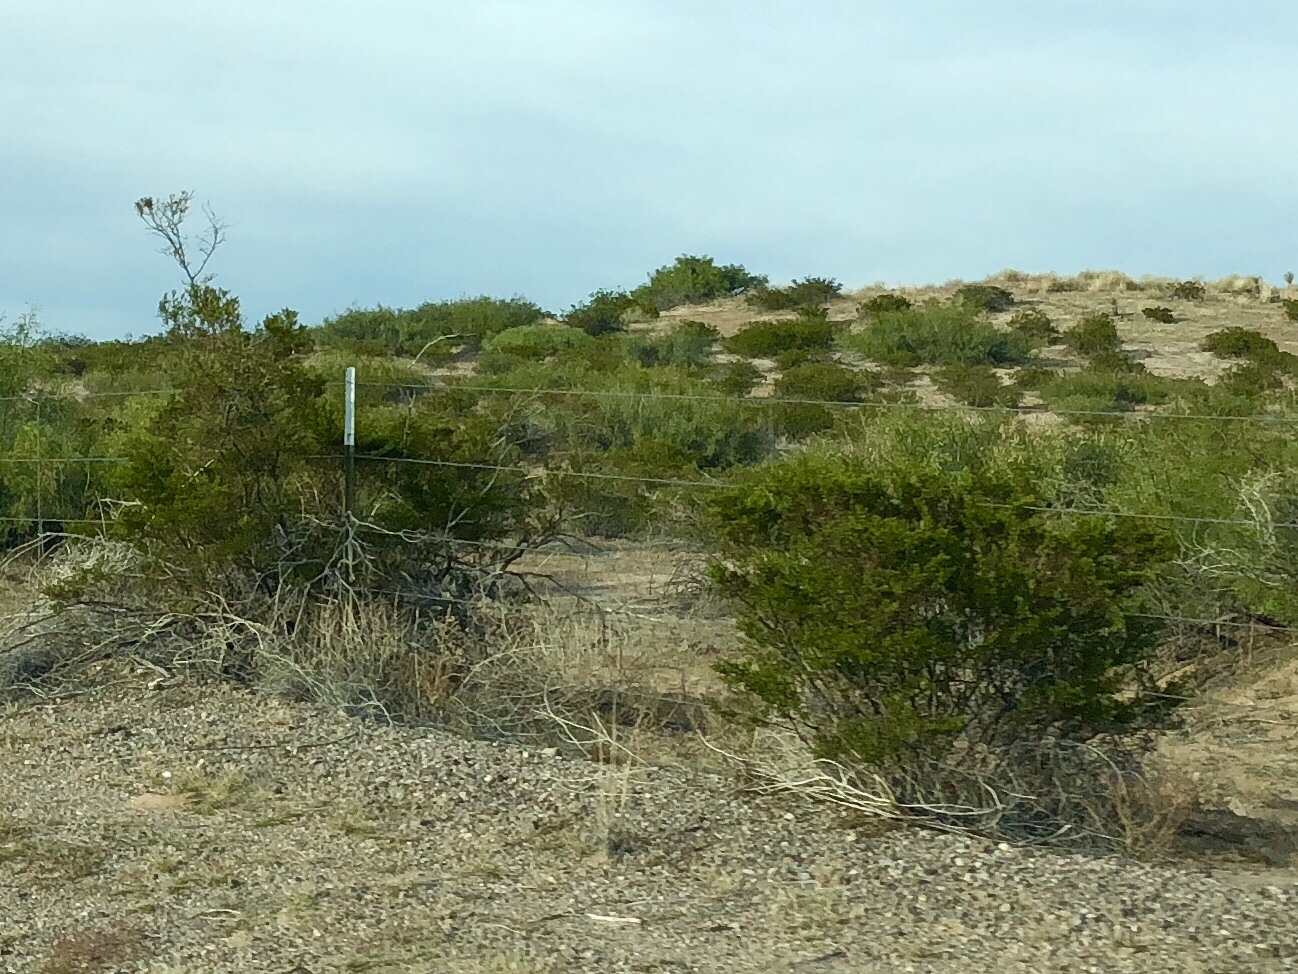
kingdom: Plantae
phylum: Tracheophyta
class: Magnoliopsida
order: Zygophyllales
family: Zygophyllaceae
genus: Larrea
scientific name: Larrea tridentata
